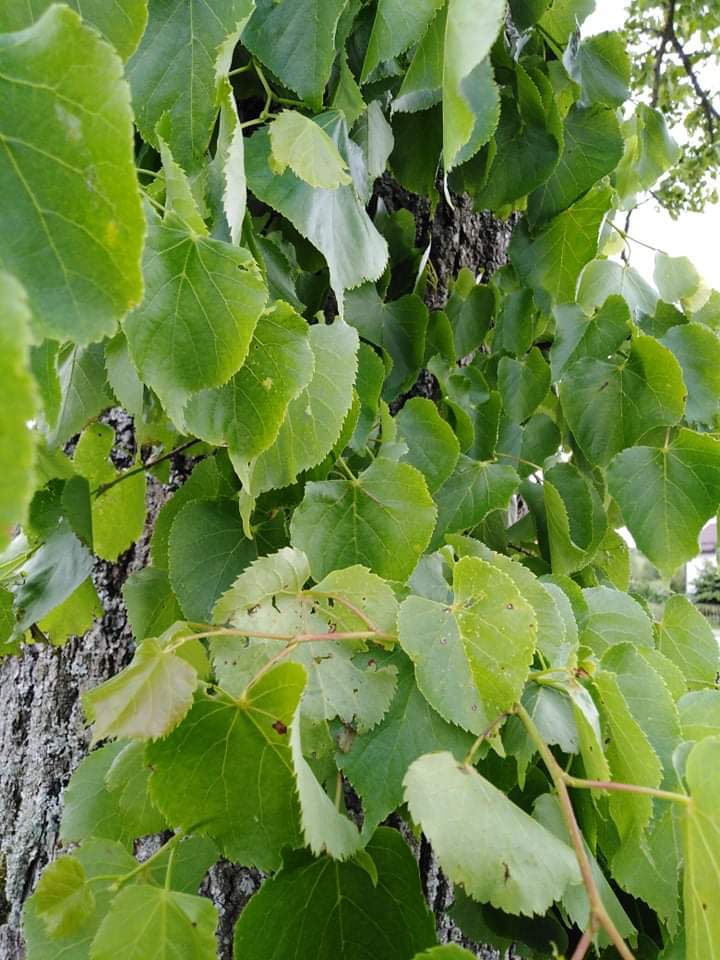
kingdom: Plantae
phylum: Tracheophyta
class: Magnoliopsida
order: Malvales
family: Malvaceae
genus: Tilia
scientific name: Tilia cordata
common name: Small-leaved lime
